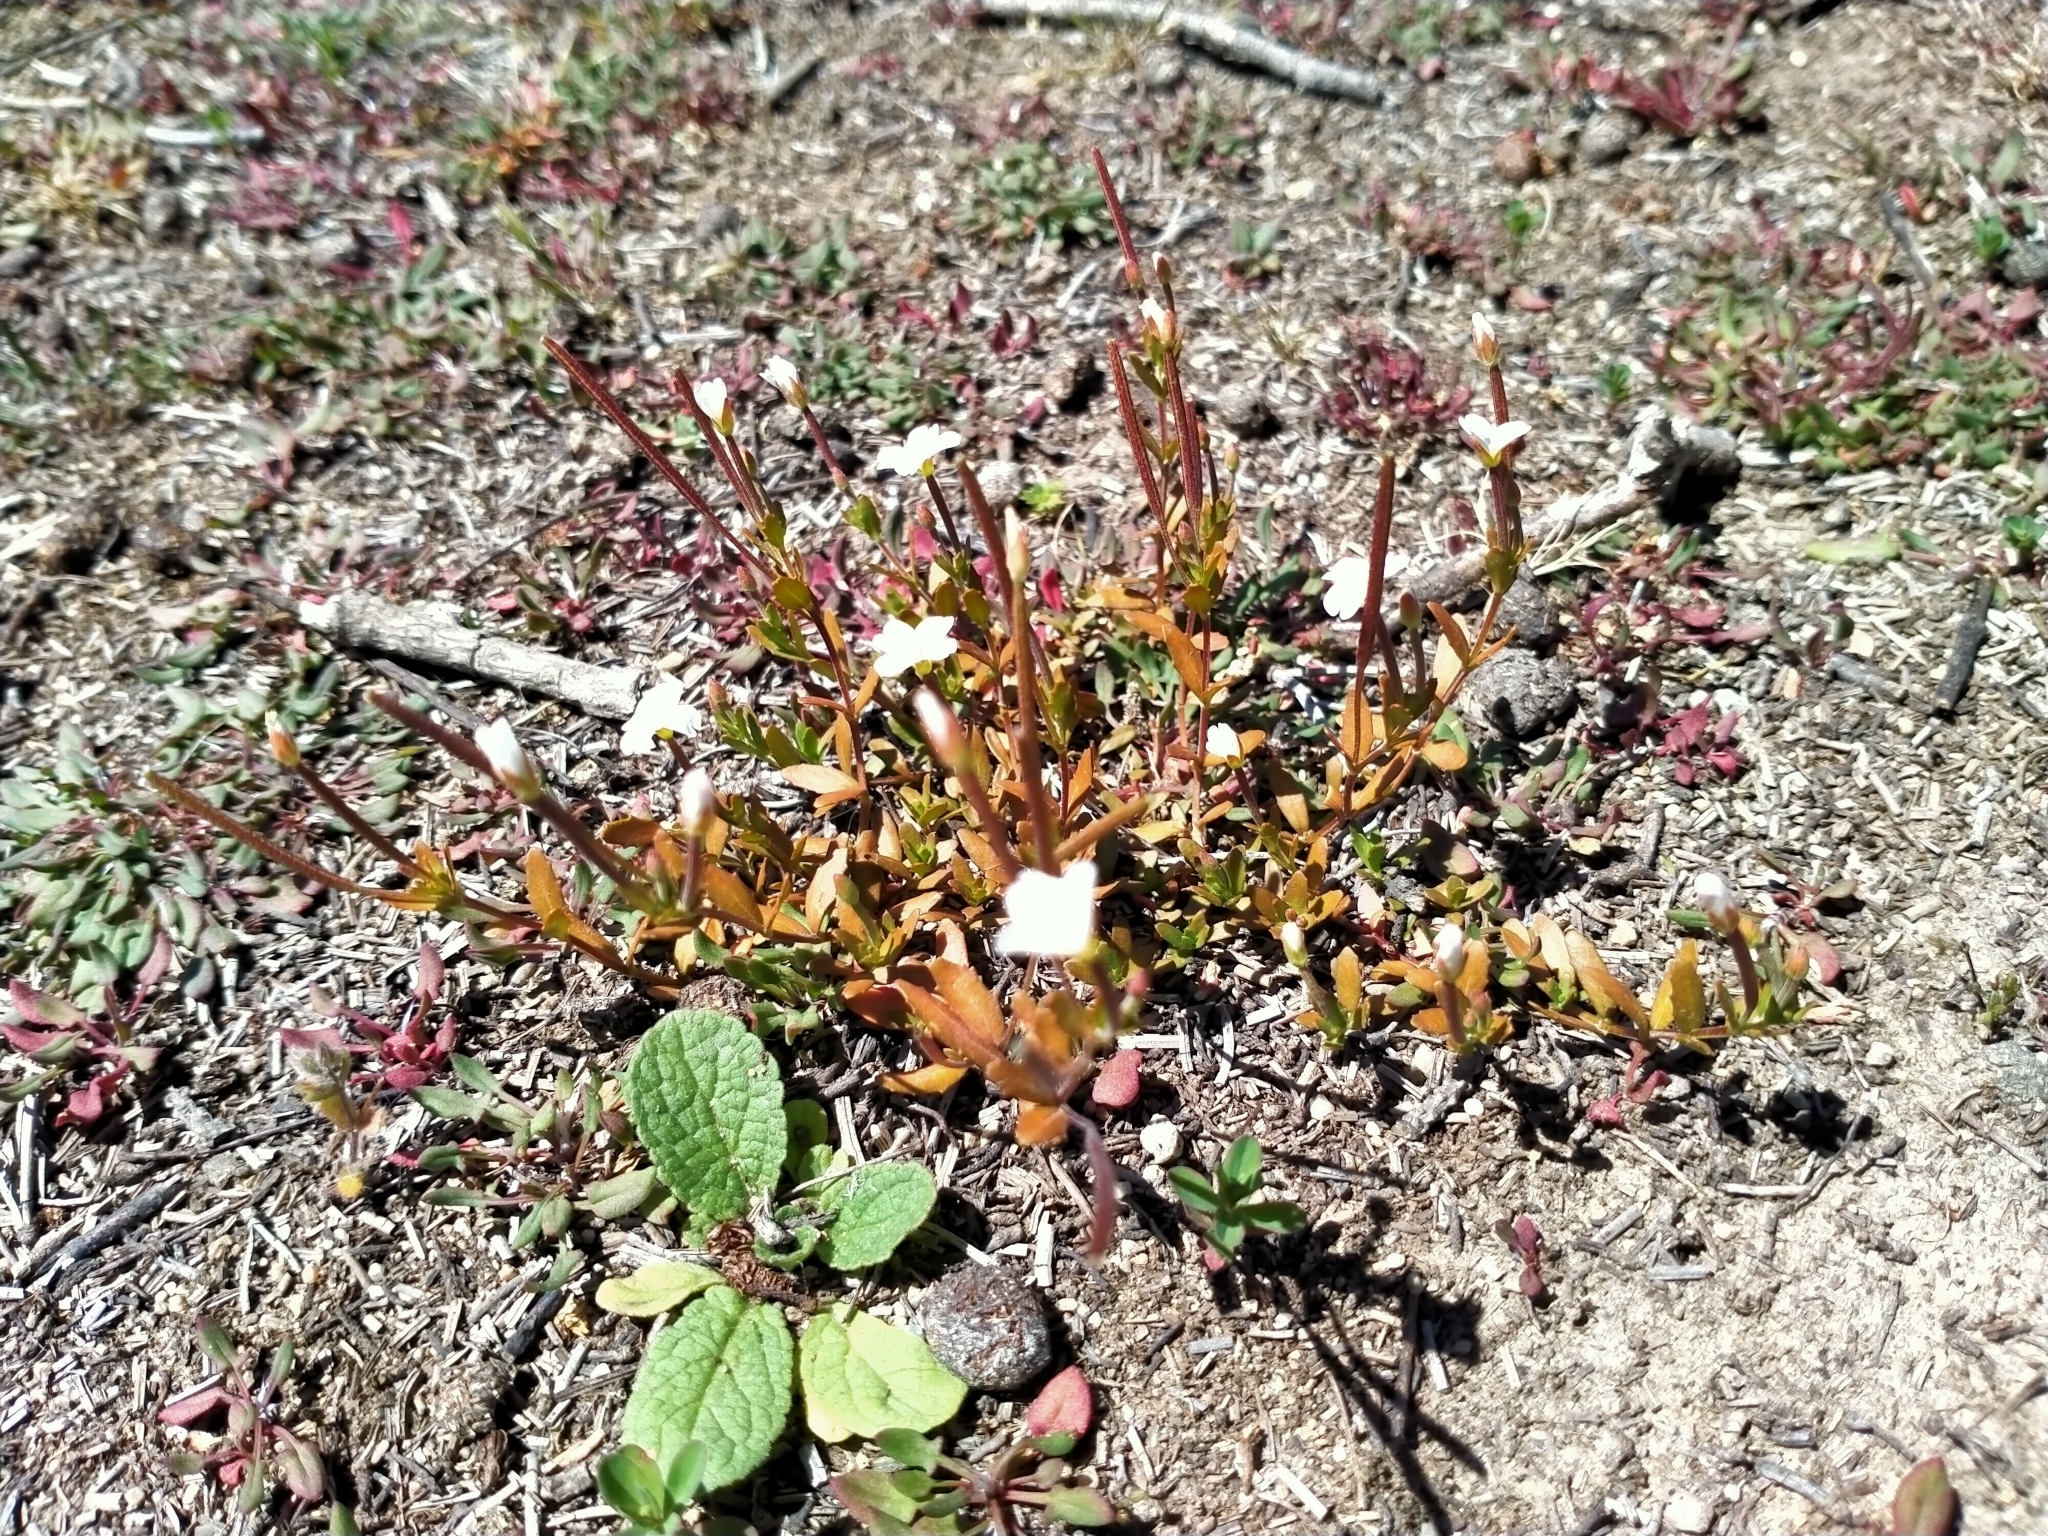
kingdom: Plantae
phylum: Tracheophyta
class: Magnoliopsida
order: Myrtales
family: Onagraceae
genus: Epilobium
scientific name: Epilobium hectorii
